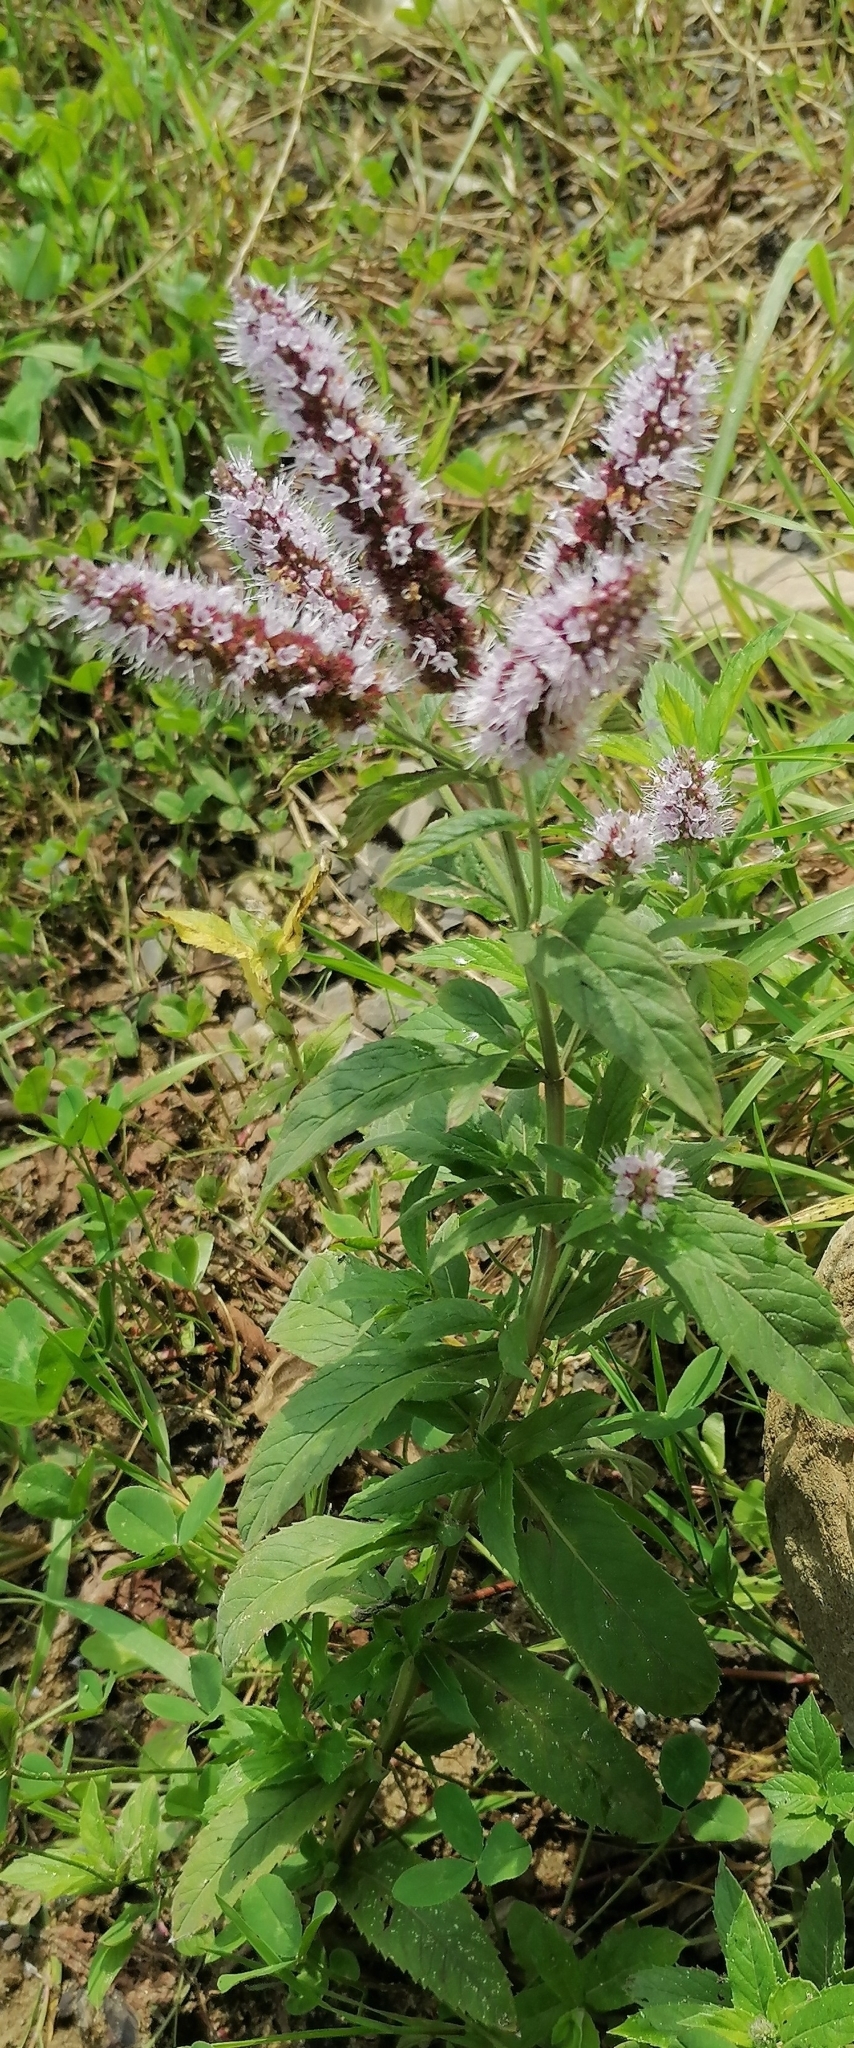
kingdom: Plantae
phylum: Tracheophyta
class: Magnoliopsida
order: Lamiales
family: Lamiaceae
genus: Mentha
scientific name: Mentha longifolia
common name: Horse mint
